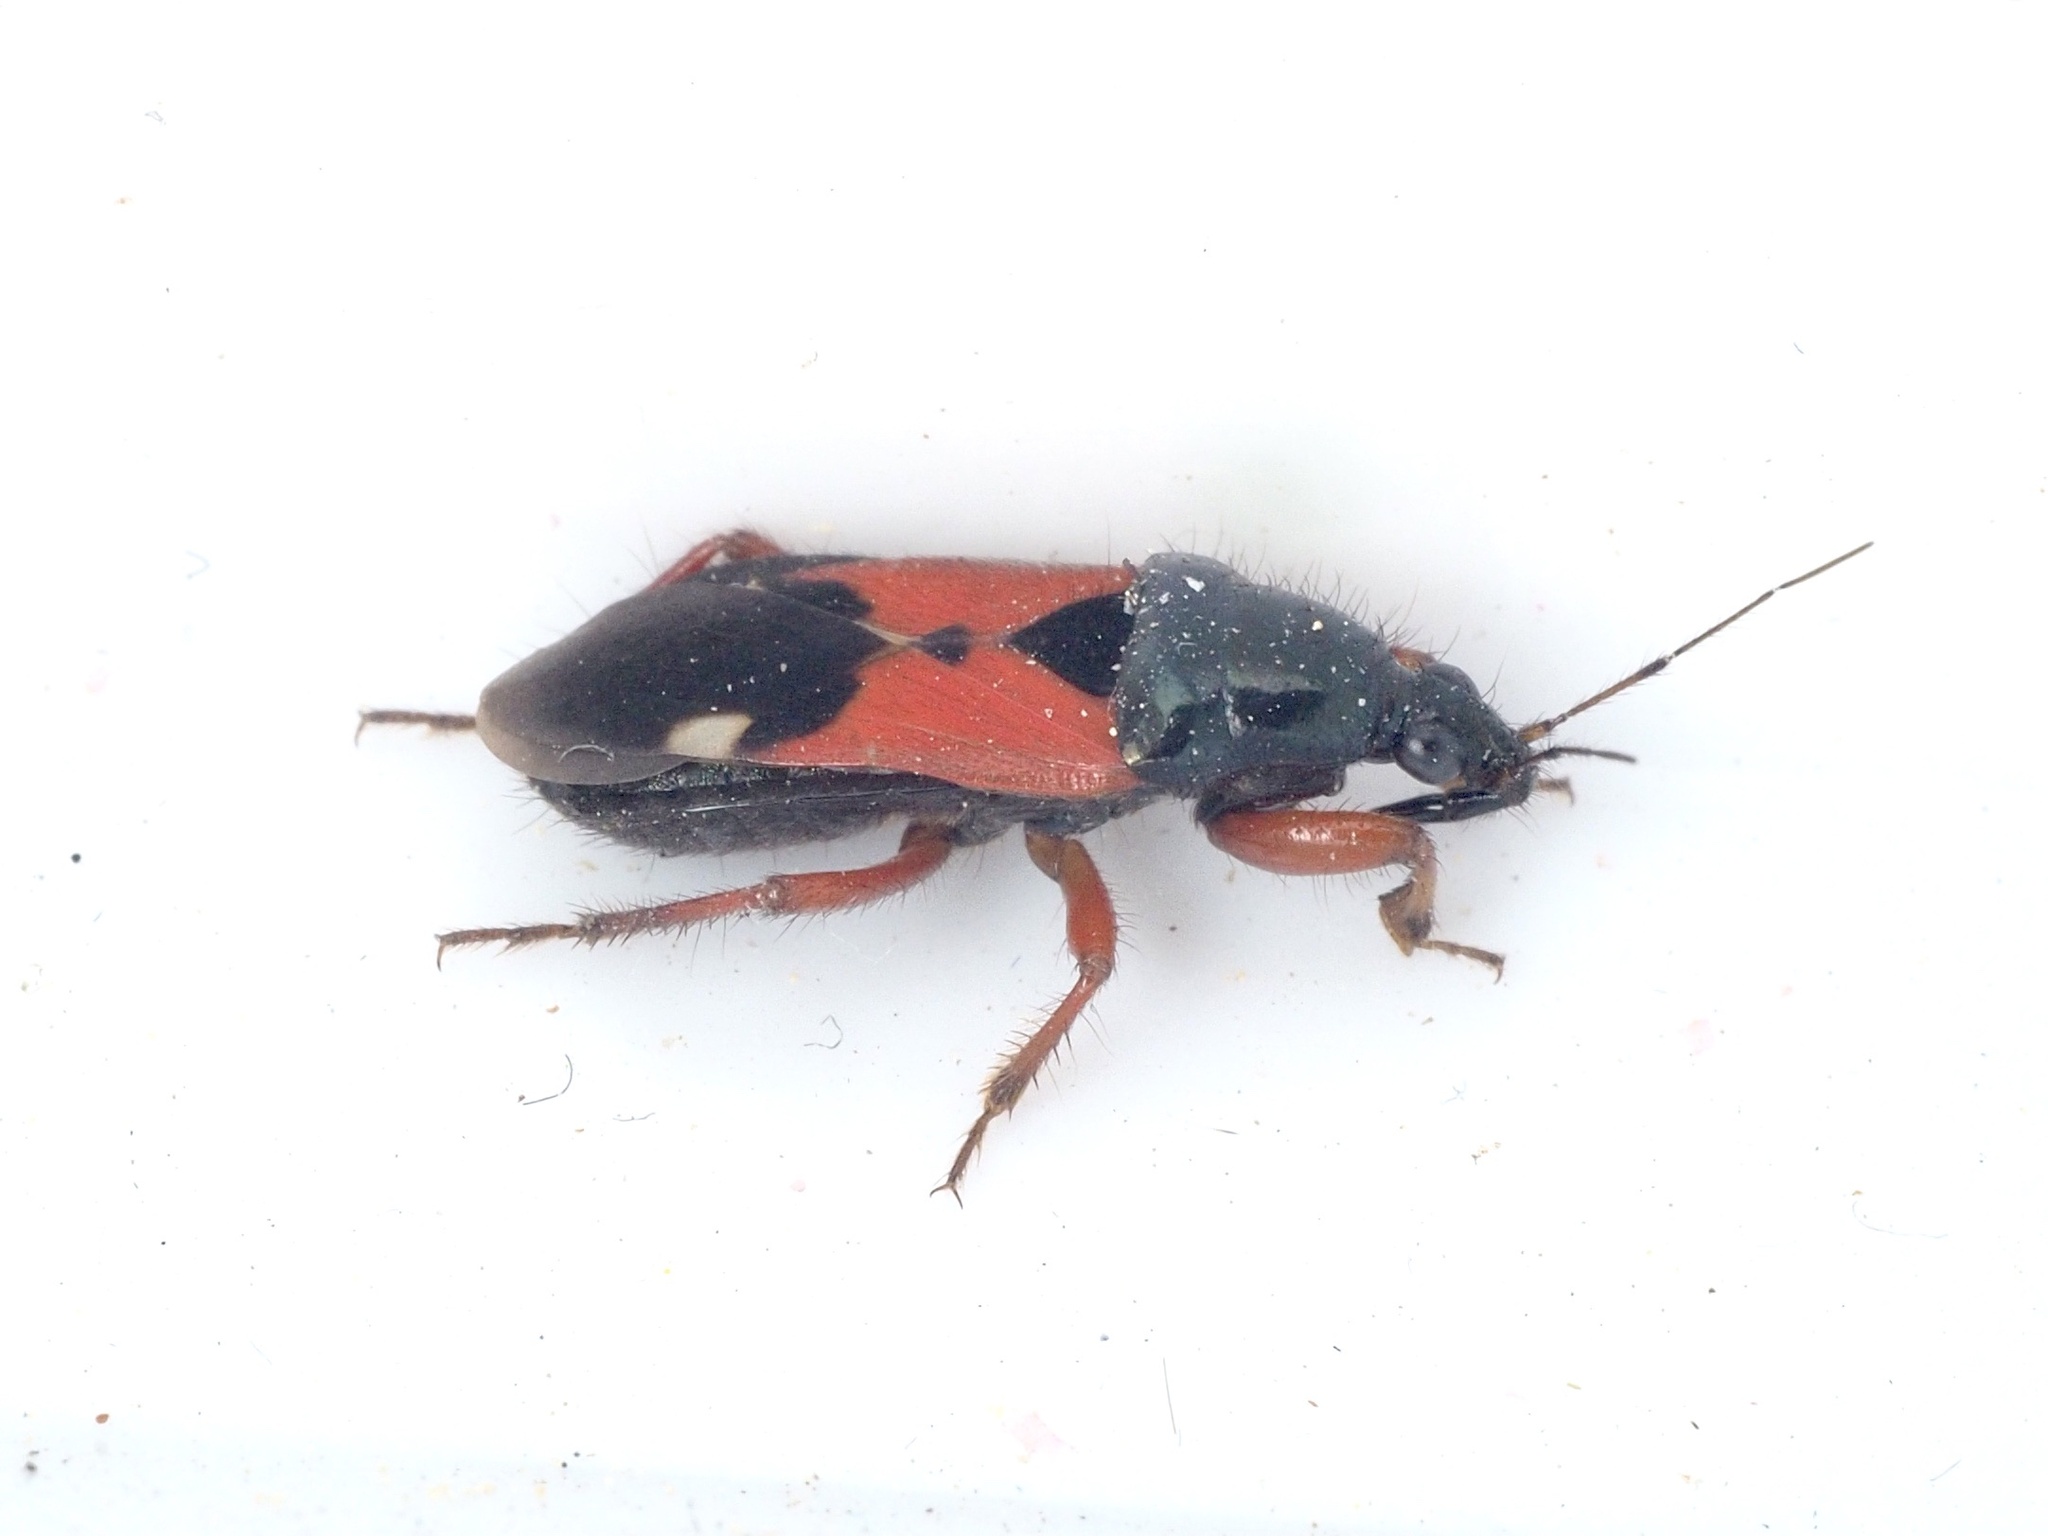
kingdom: Animalia
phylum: Arthropoda
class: Insecta
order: Hemiptera
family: Nabidae
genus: Prostemma
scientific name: Prostemma guttula
